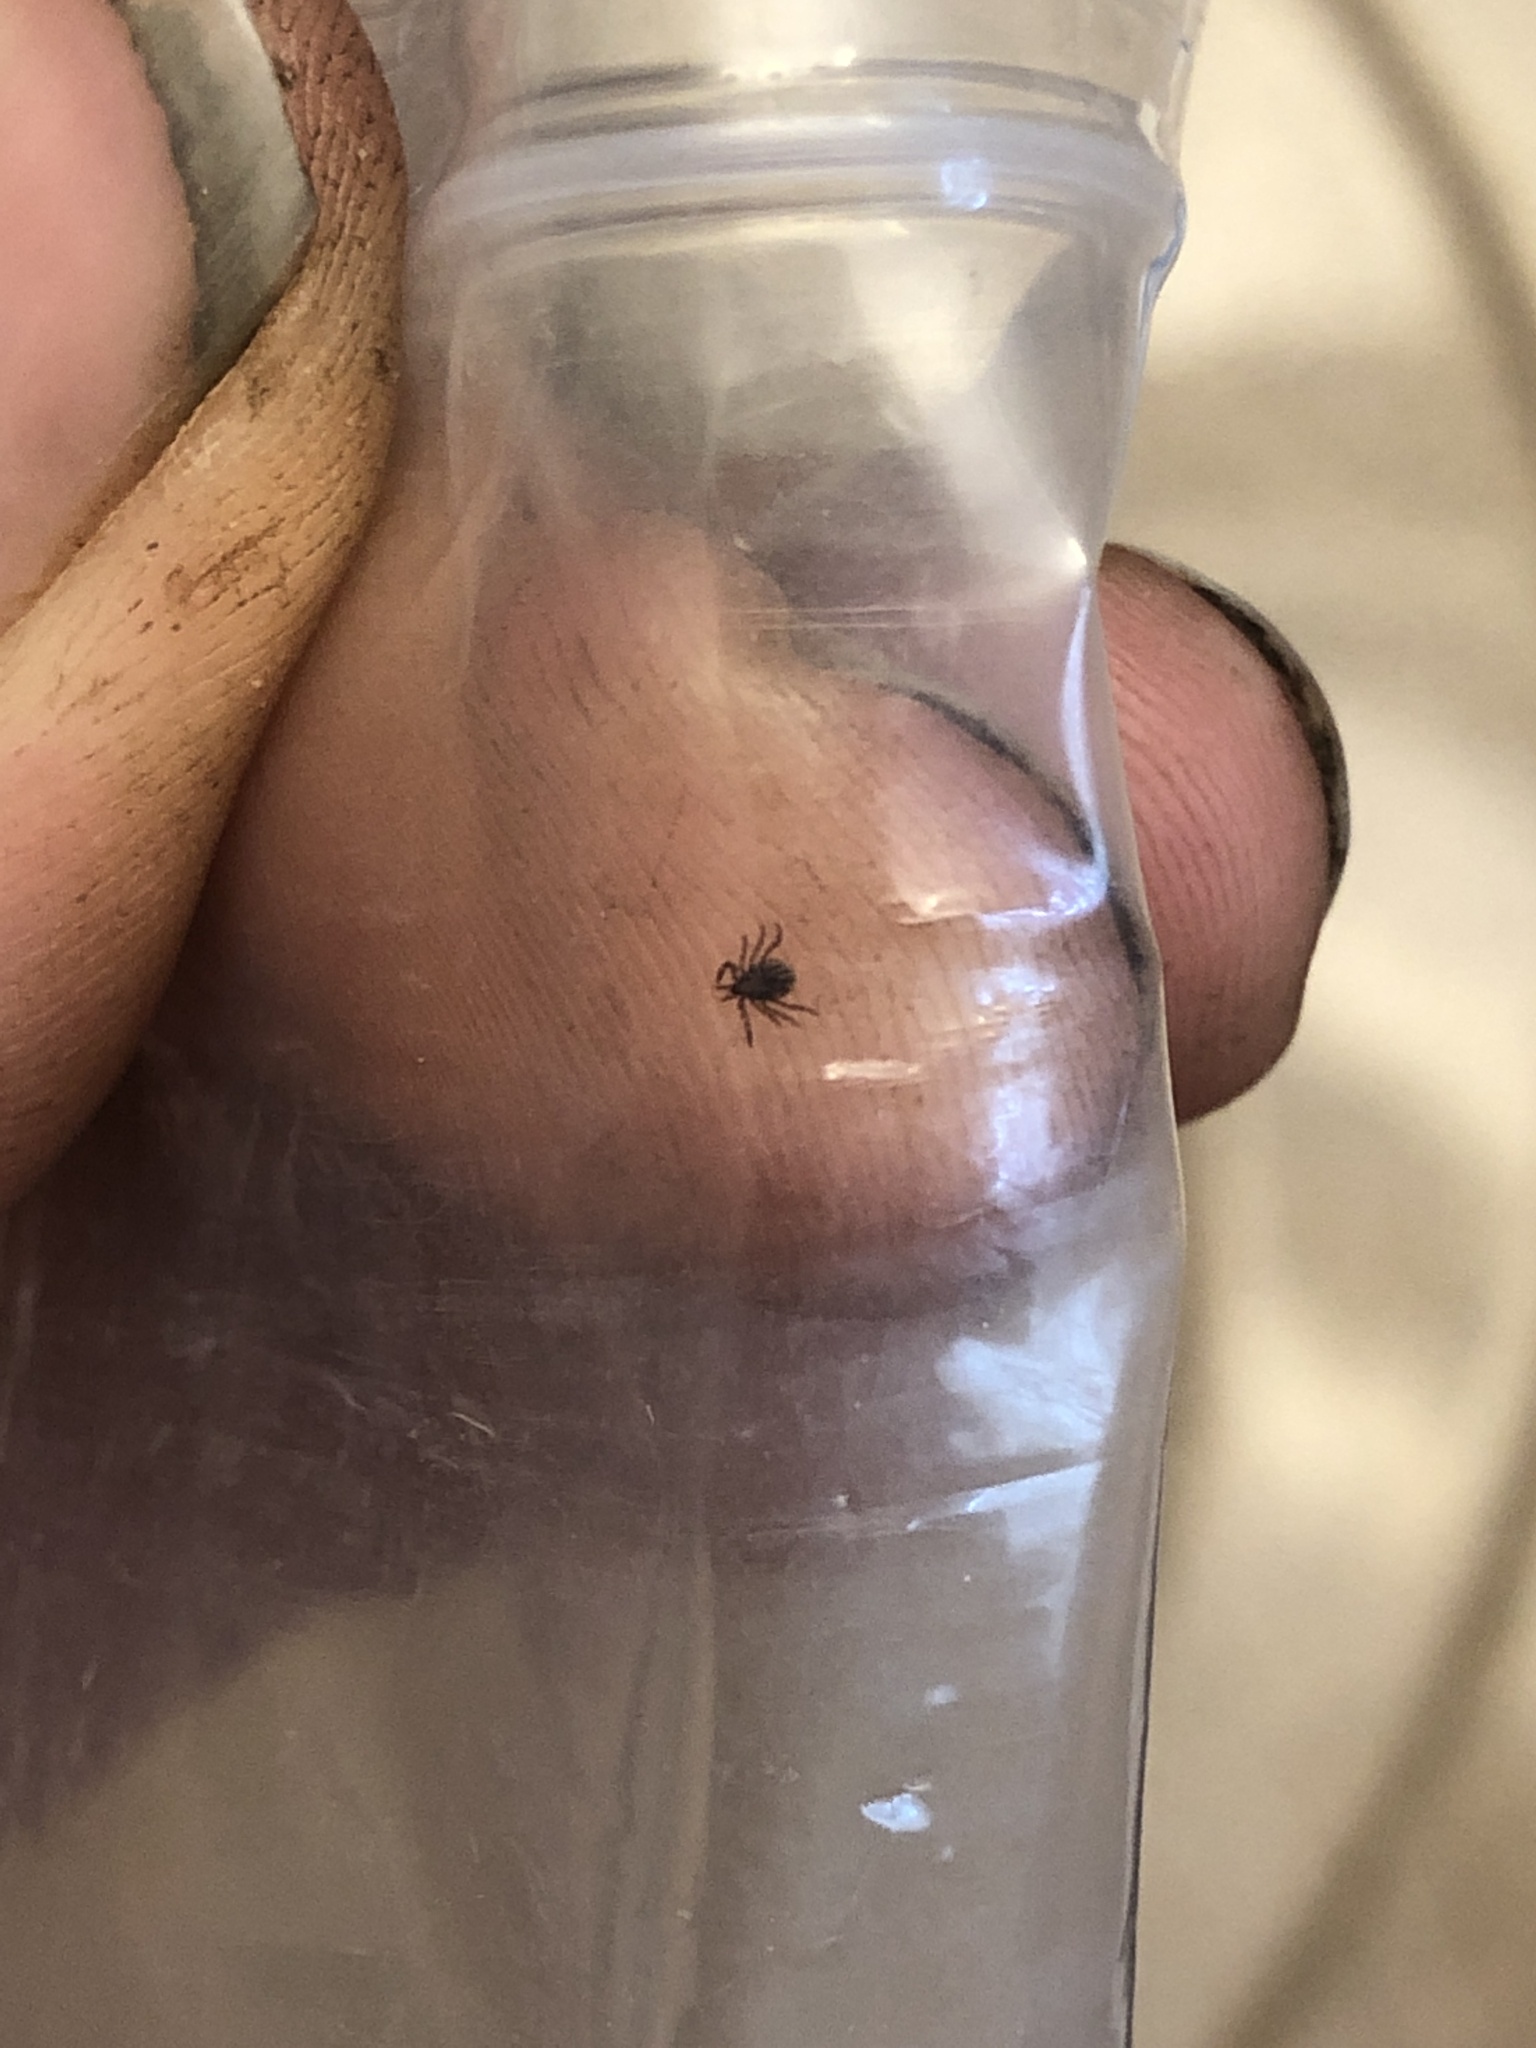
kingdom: Animalia
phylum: Arthropoda
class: Arachnida
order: Ixodida
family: Ixodidae
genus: Ixodes
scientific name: Ixodes scapularis
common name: Black legged tick
